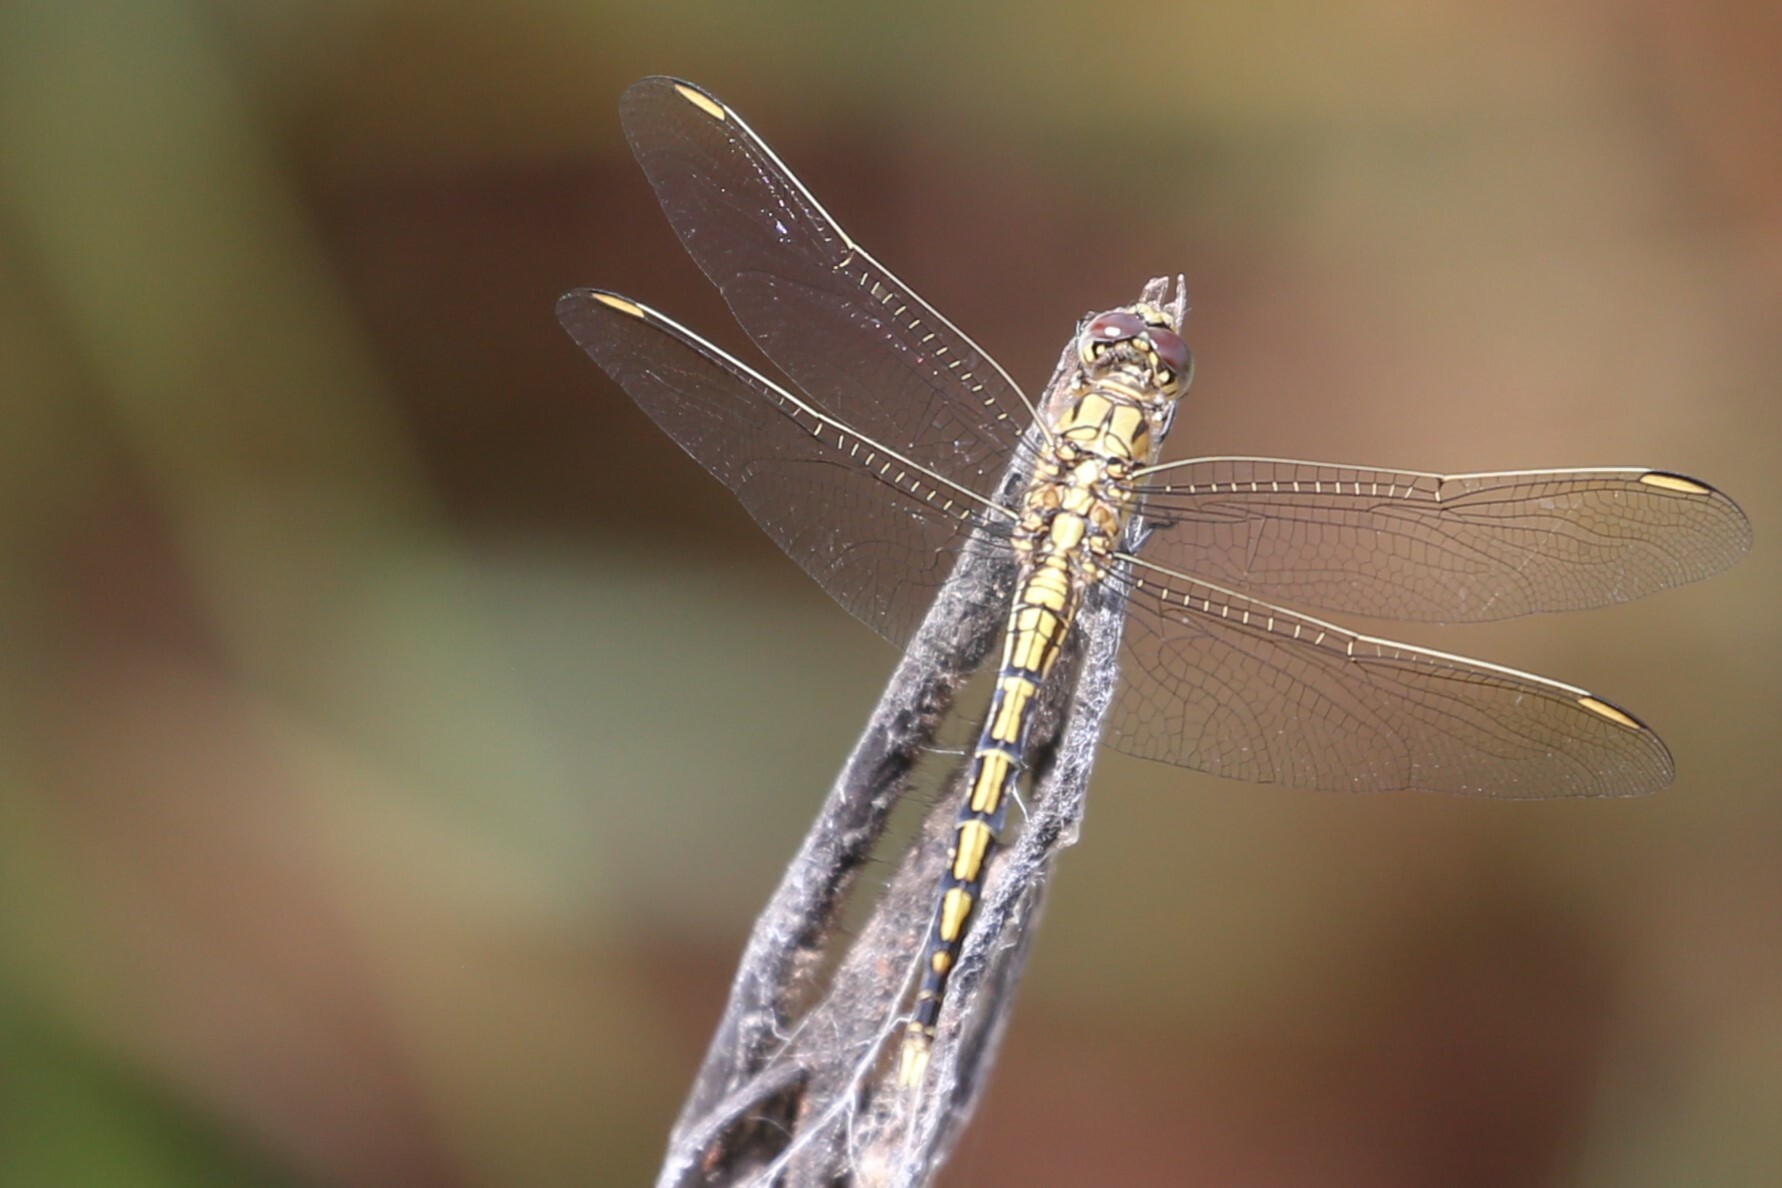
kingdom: Animalia
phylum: Arthropoda
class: Insecta
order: Odonata
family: Libellulidae
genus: Orthetrum
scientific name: Orthetrum caledonicum
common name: Blue skimmer
